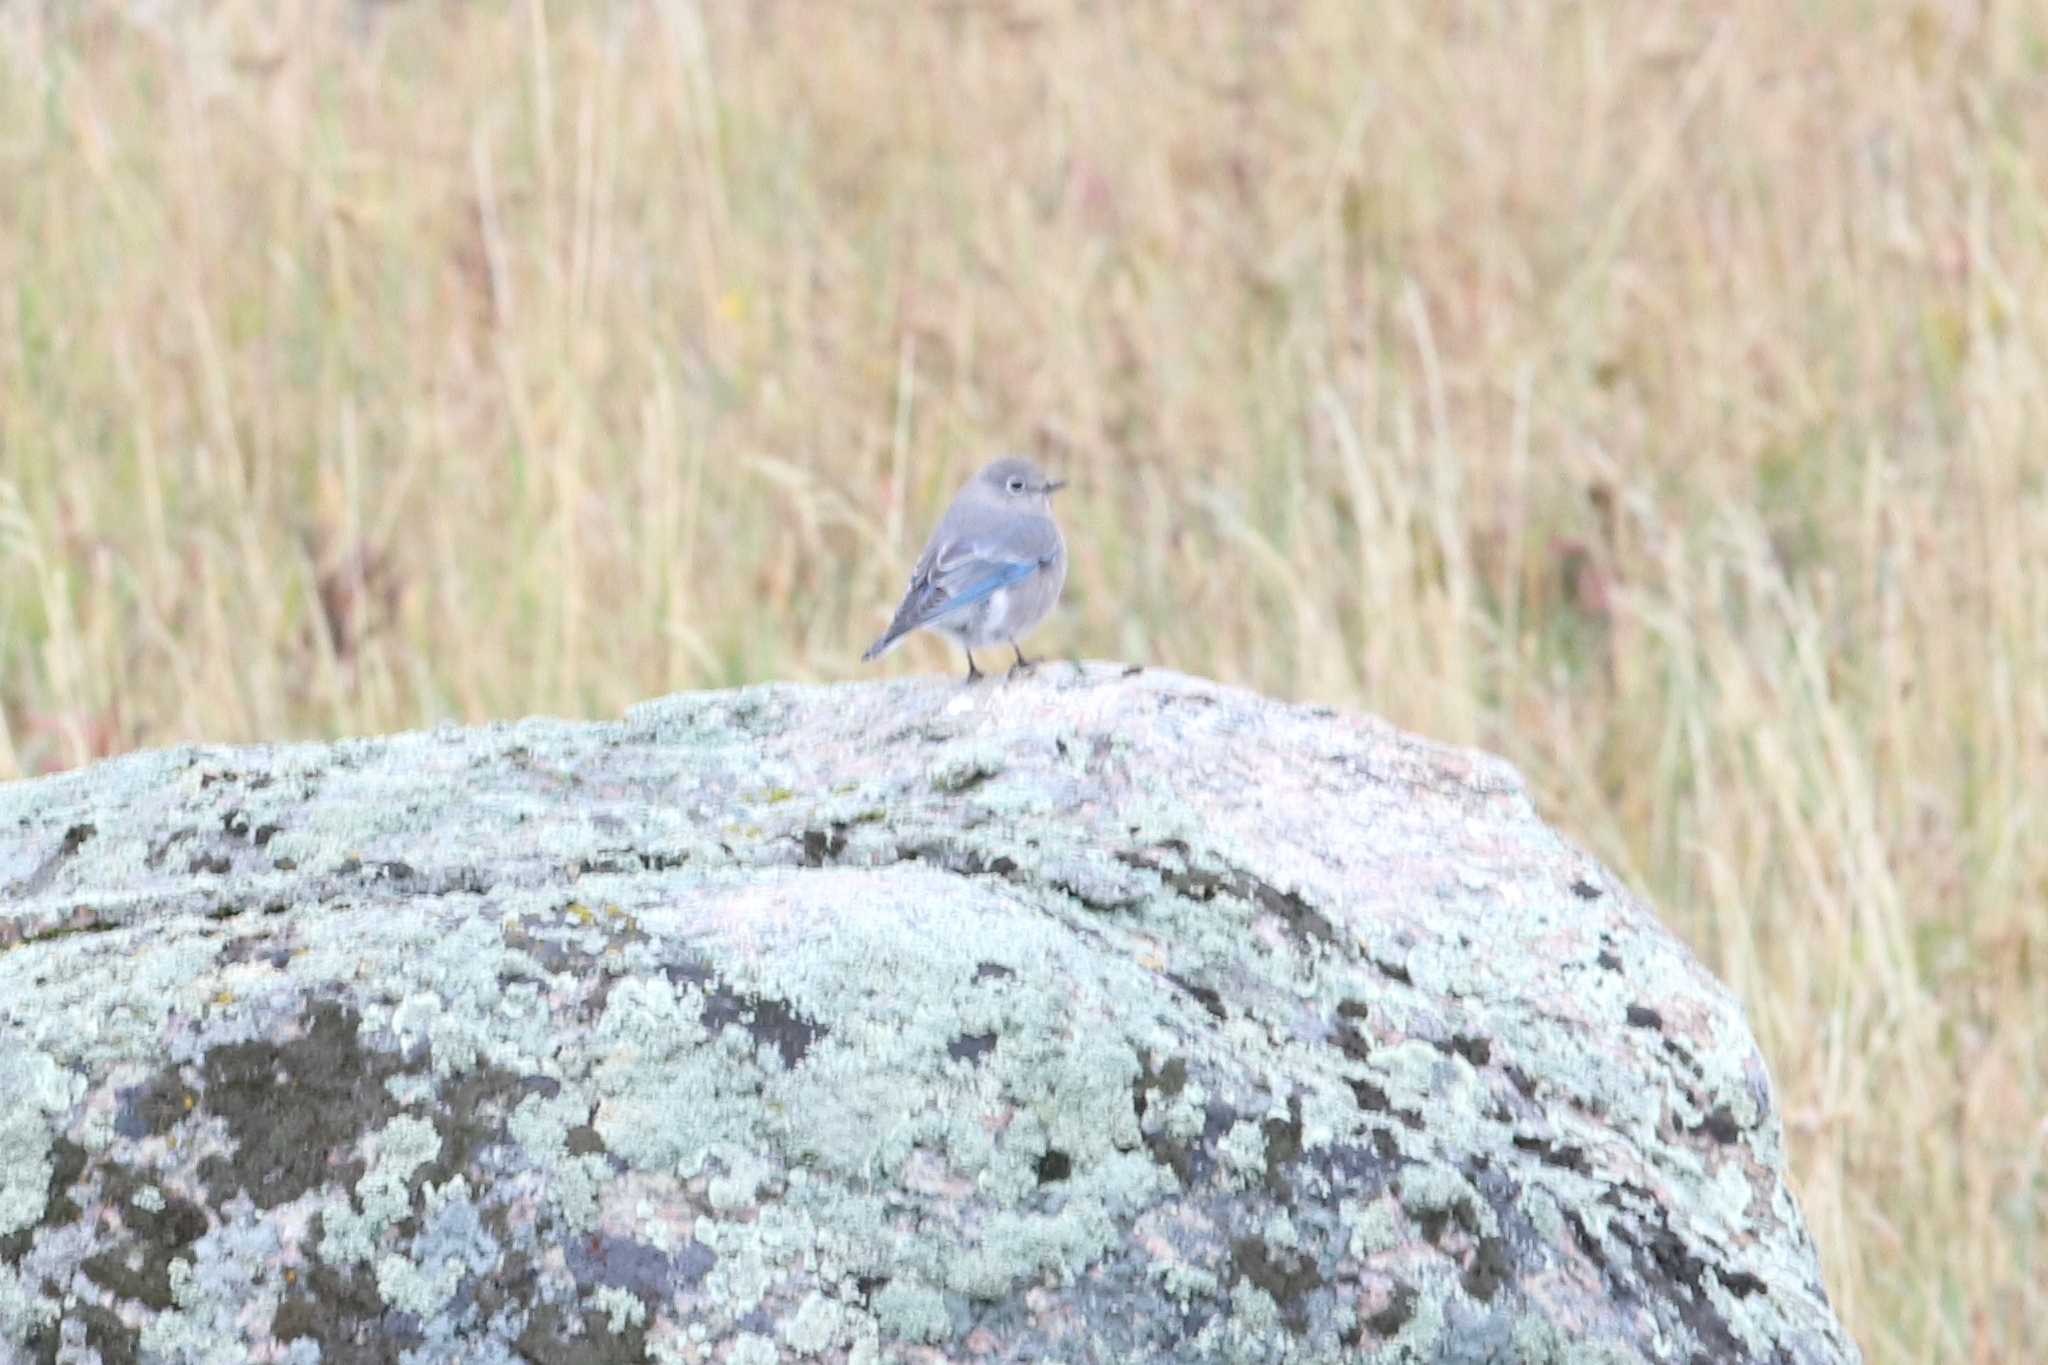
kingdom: Animalia
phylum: Chordata
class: Aves
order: Passeriformes
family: Turdidae
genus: Sialia
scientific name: Sialia currucoides
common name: Mountain bluebird
